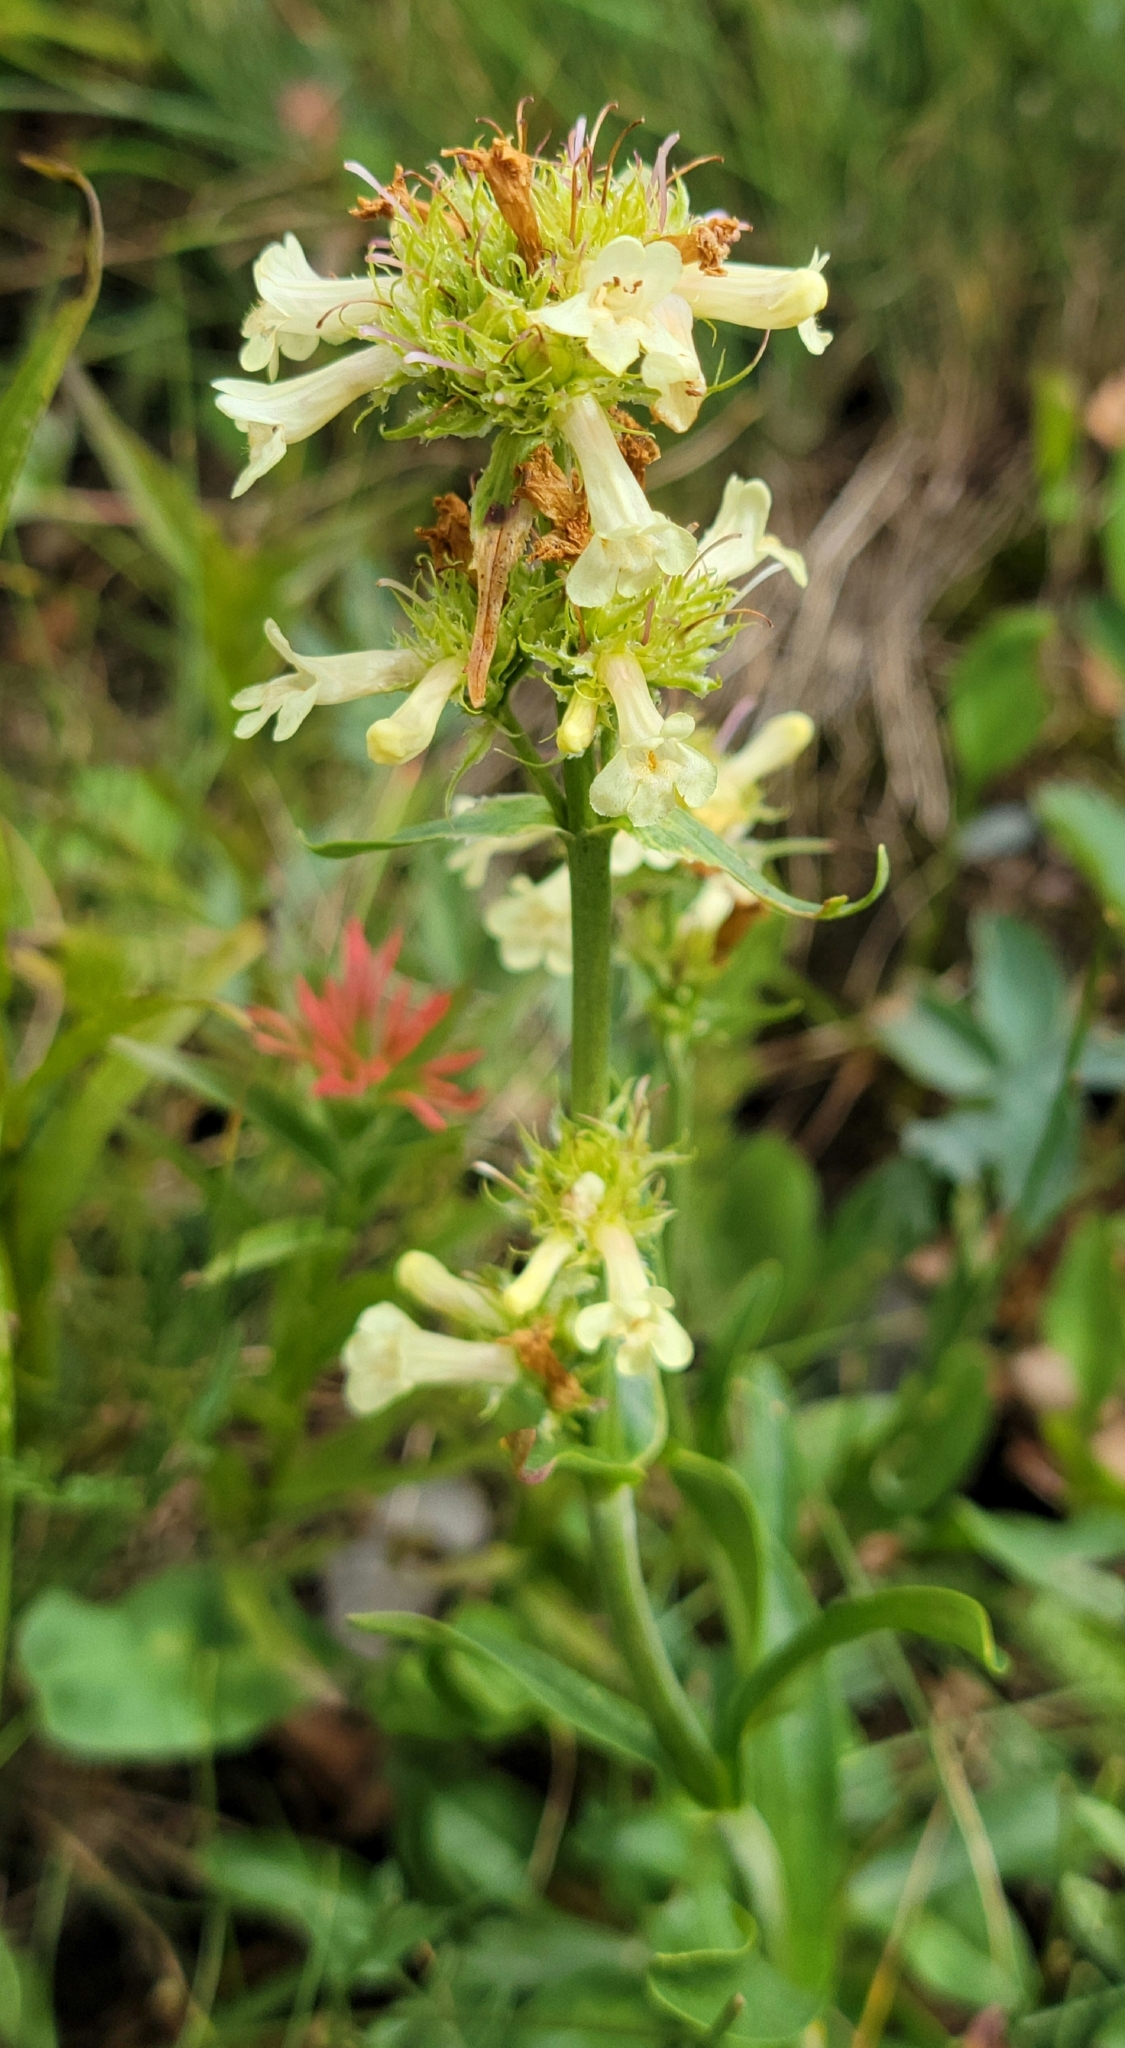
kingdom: Plantae
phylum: Tracheophyta
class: Magnoliopsida
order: Lamiales
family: Plantaginaceae
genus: Penstemon
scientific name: Penstemon confertus
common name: Lesser yellow beardtongue
